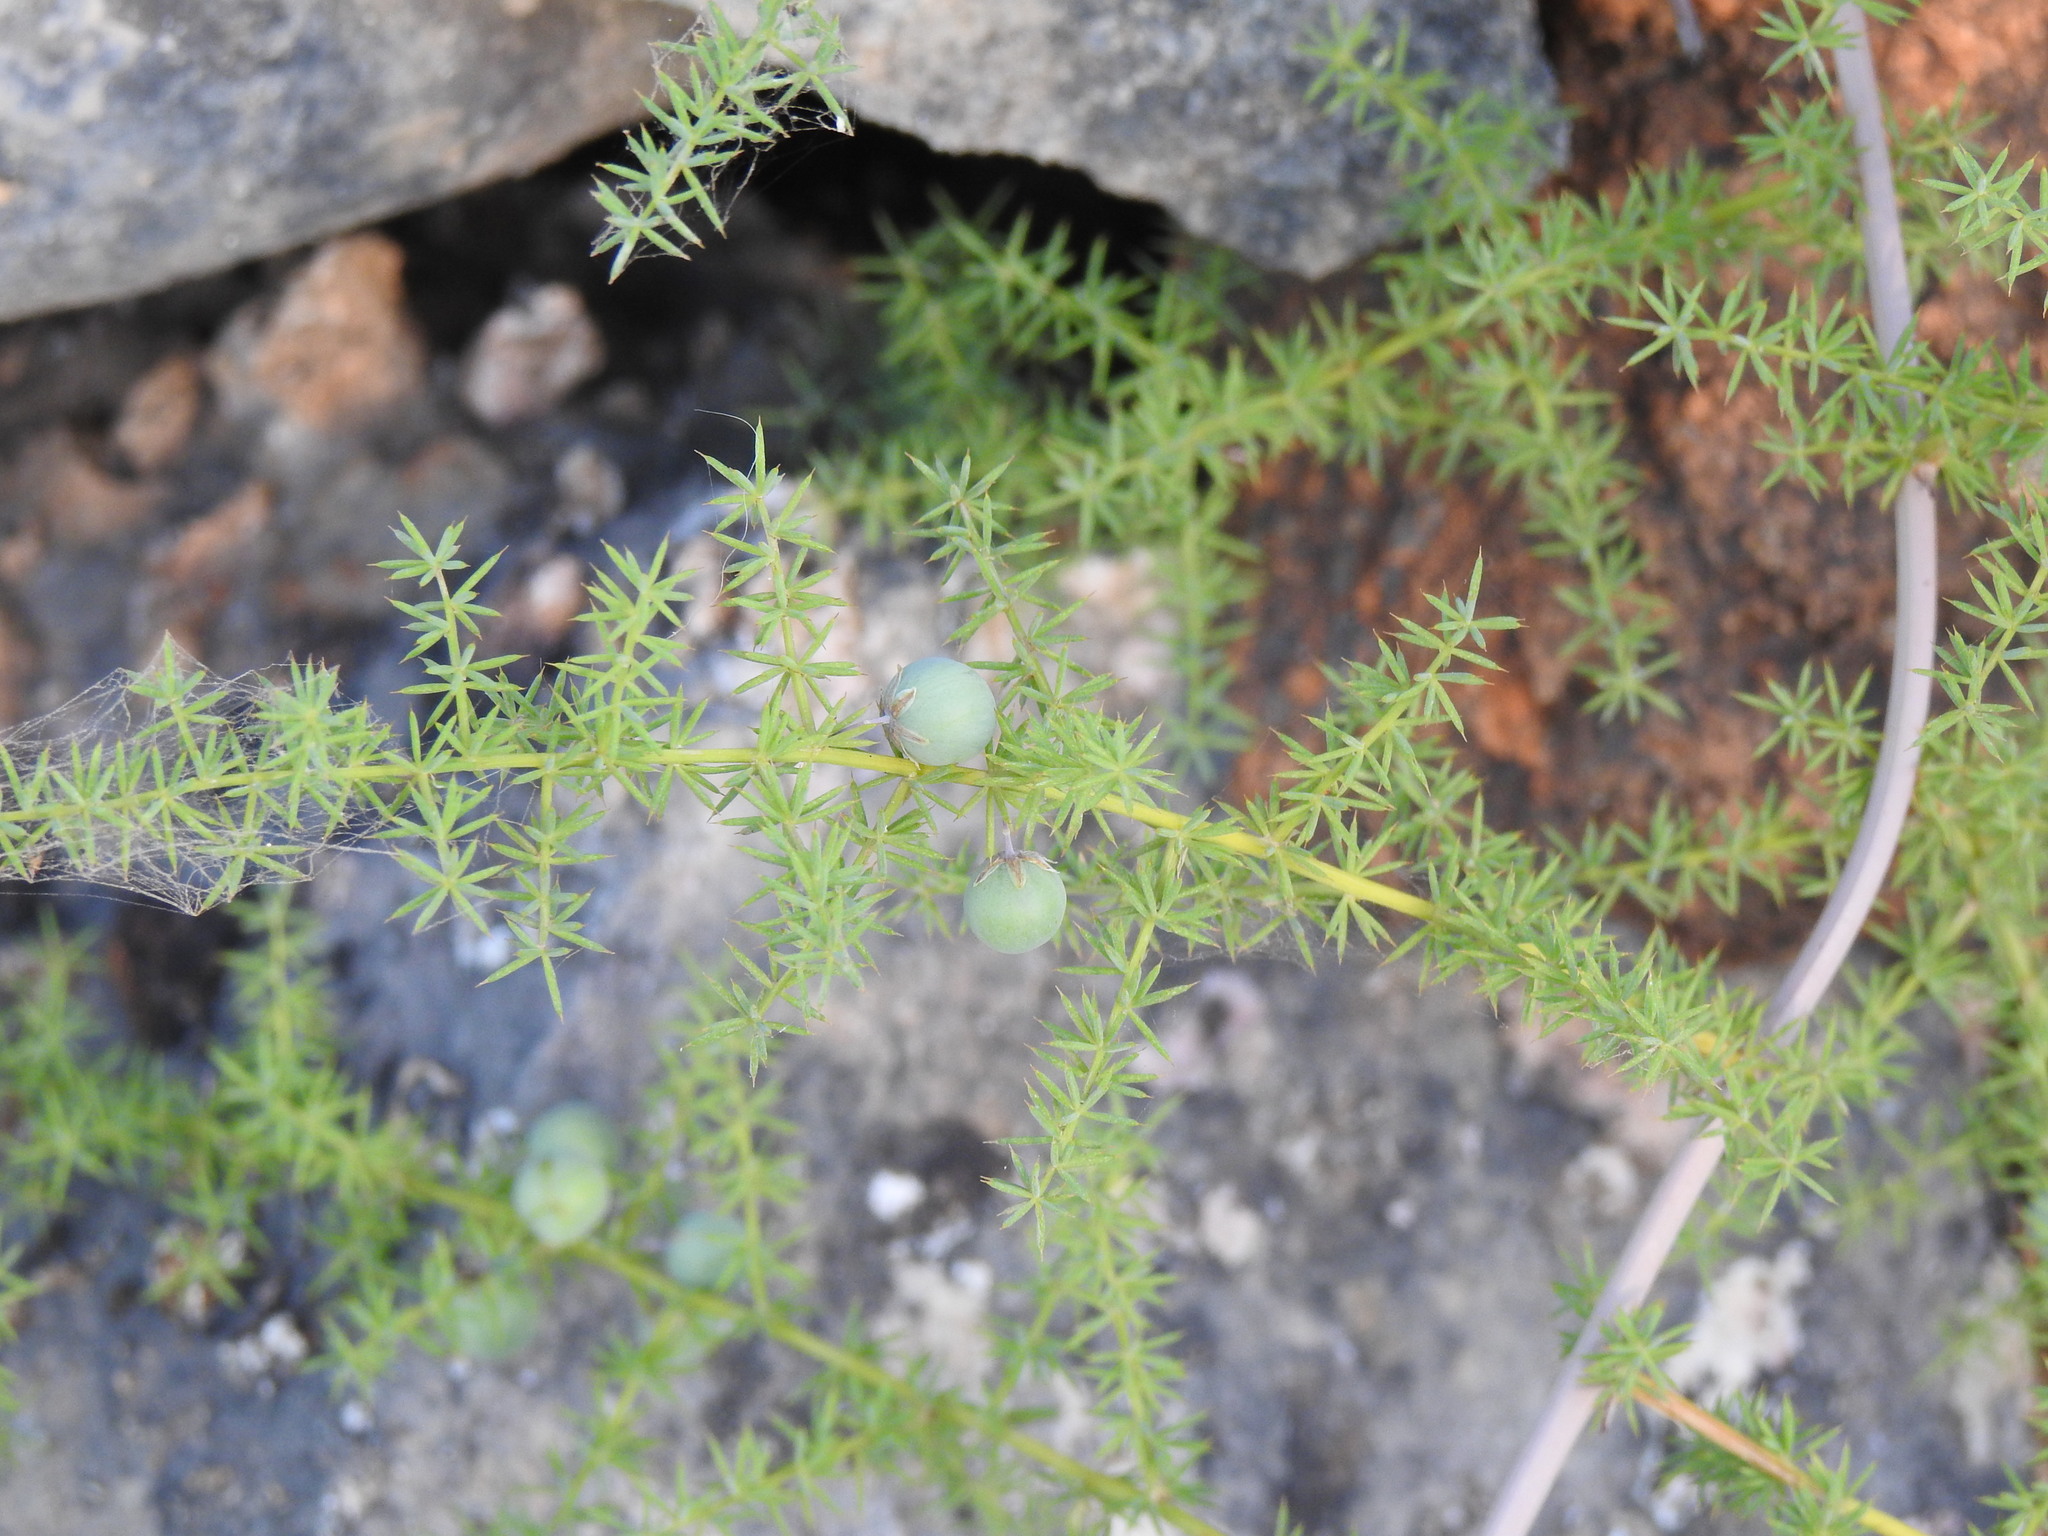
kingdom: Plantae
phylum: Tracheophyta
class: Liliopsida
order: Asparagales
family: Asparagaceae
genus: Asparagus
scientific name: Asparagus acutifolius
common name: Wild asparagus
